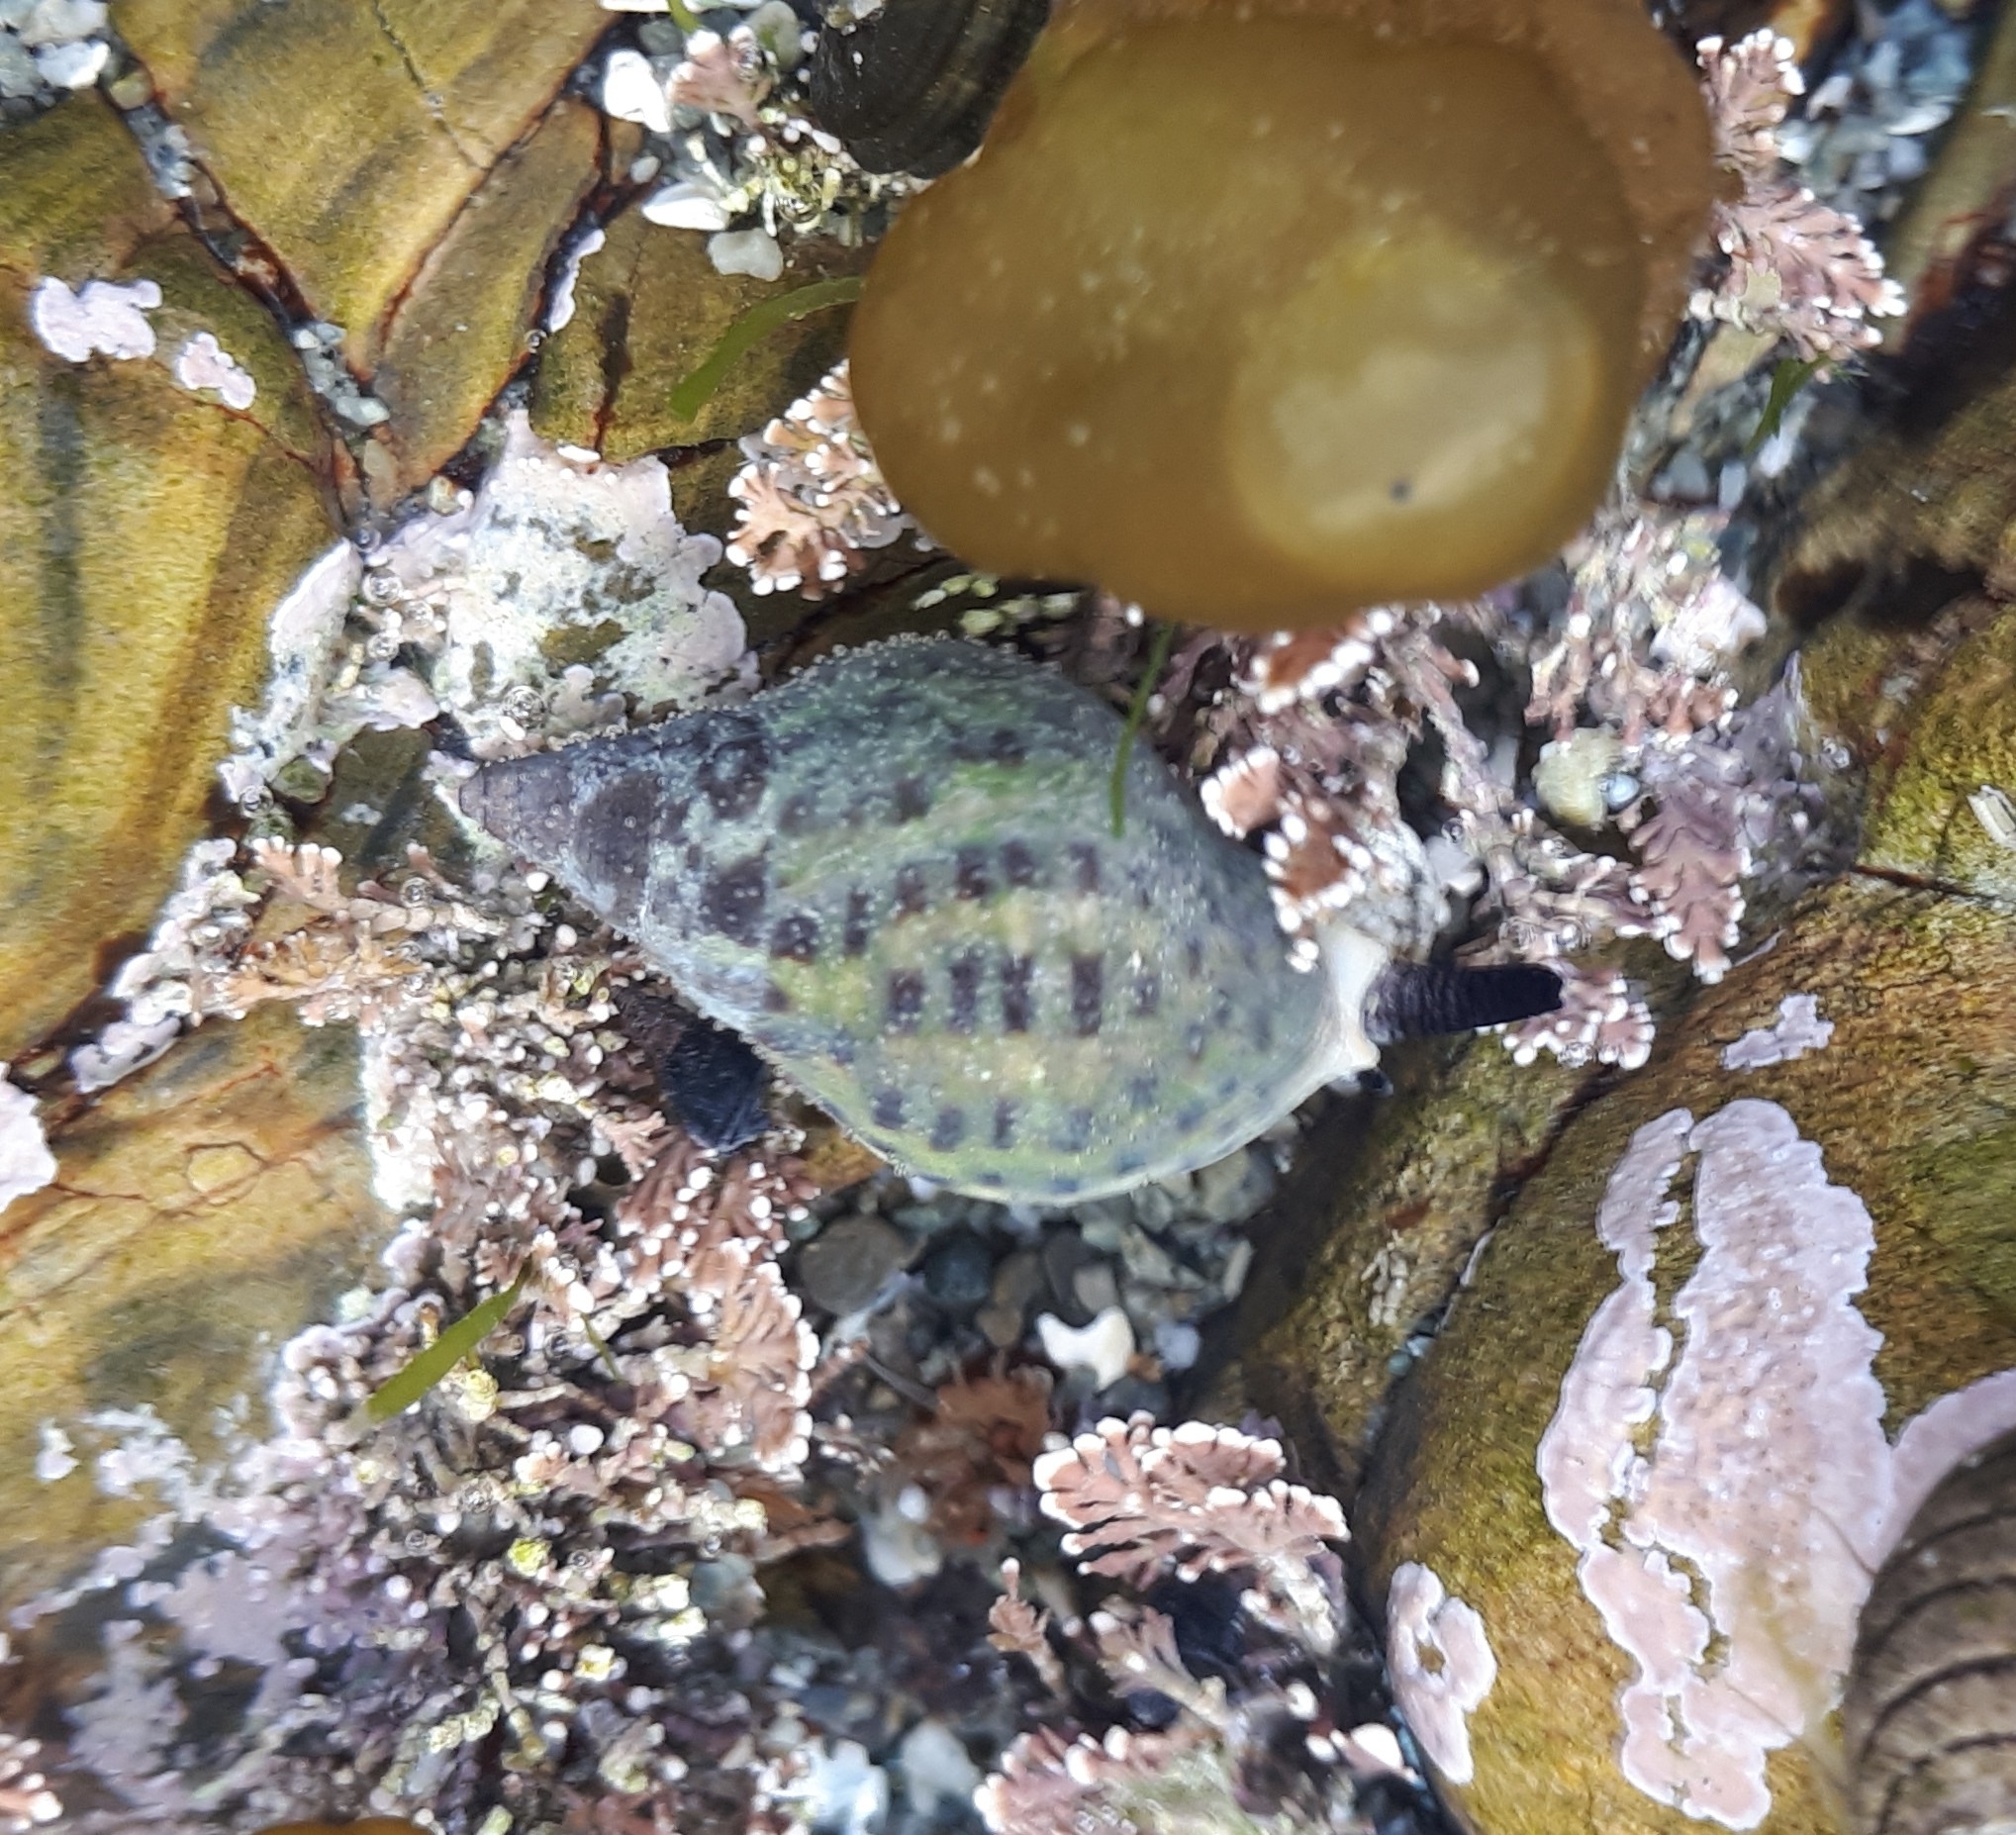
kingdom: Animalia
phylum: Mollusca
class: Gastropoda
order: Neogastropoda
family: Cominellidae
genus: Cominella
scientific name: Cominella maculosa
